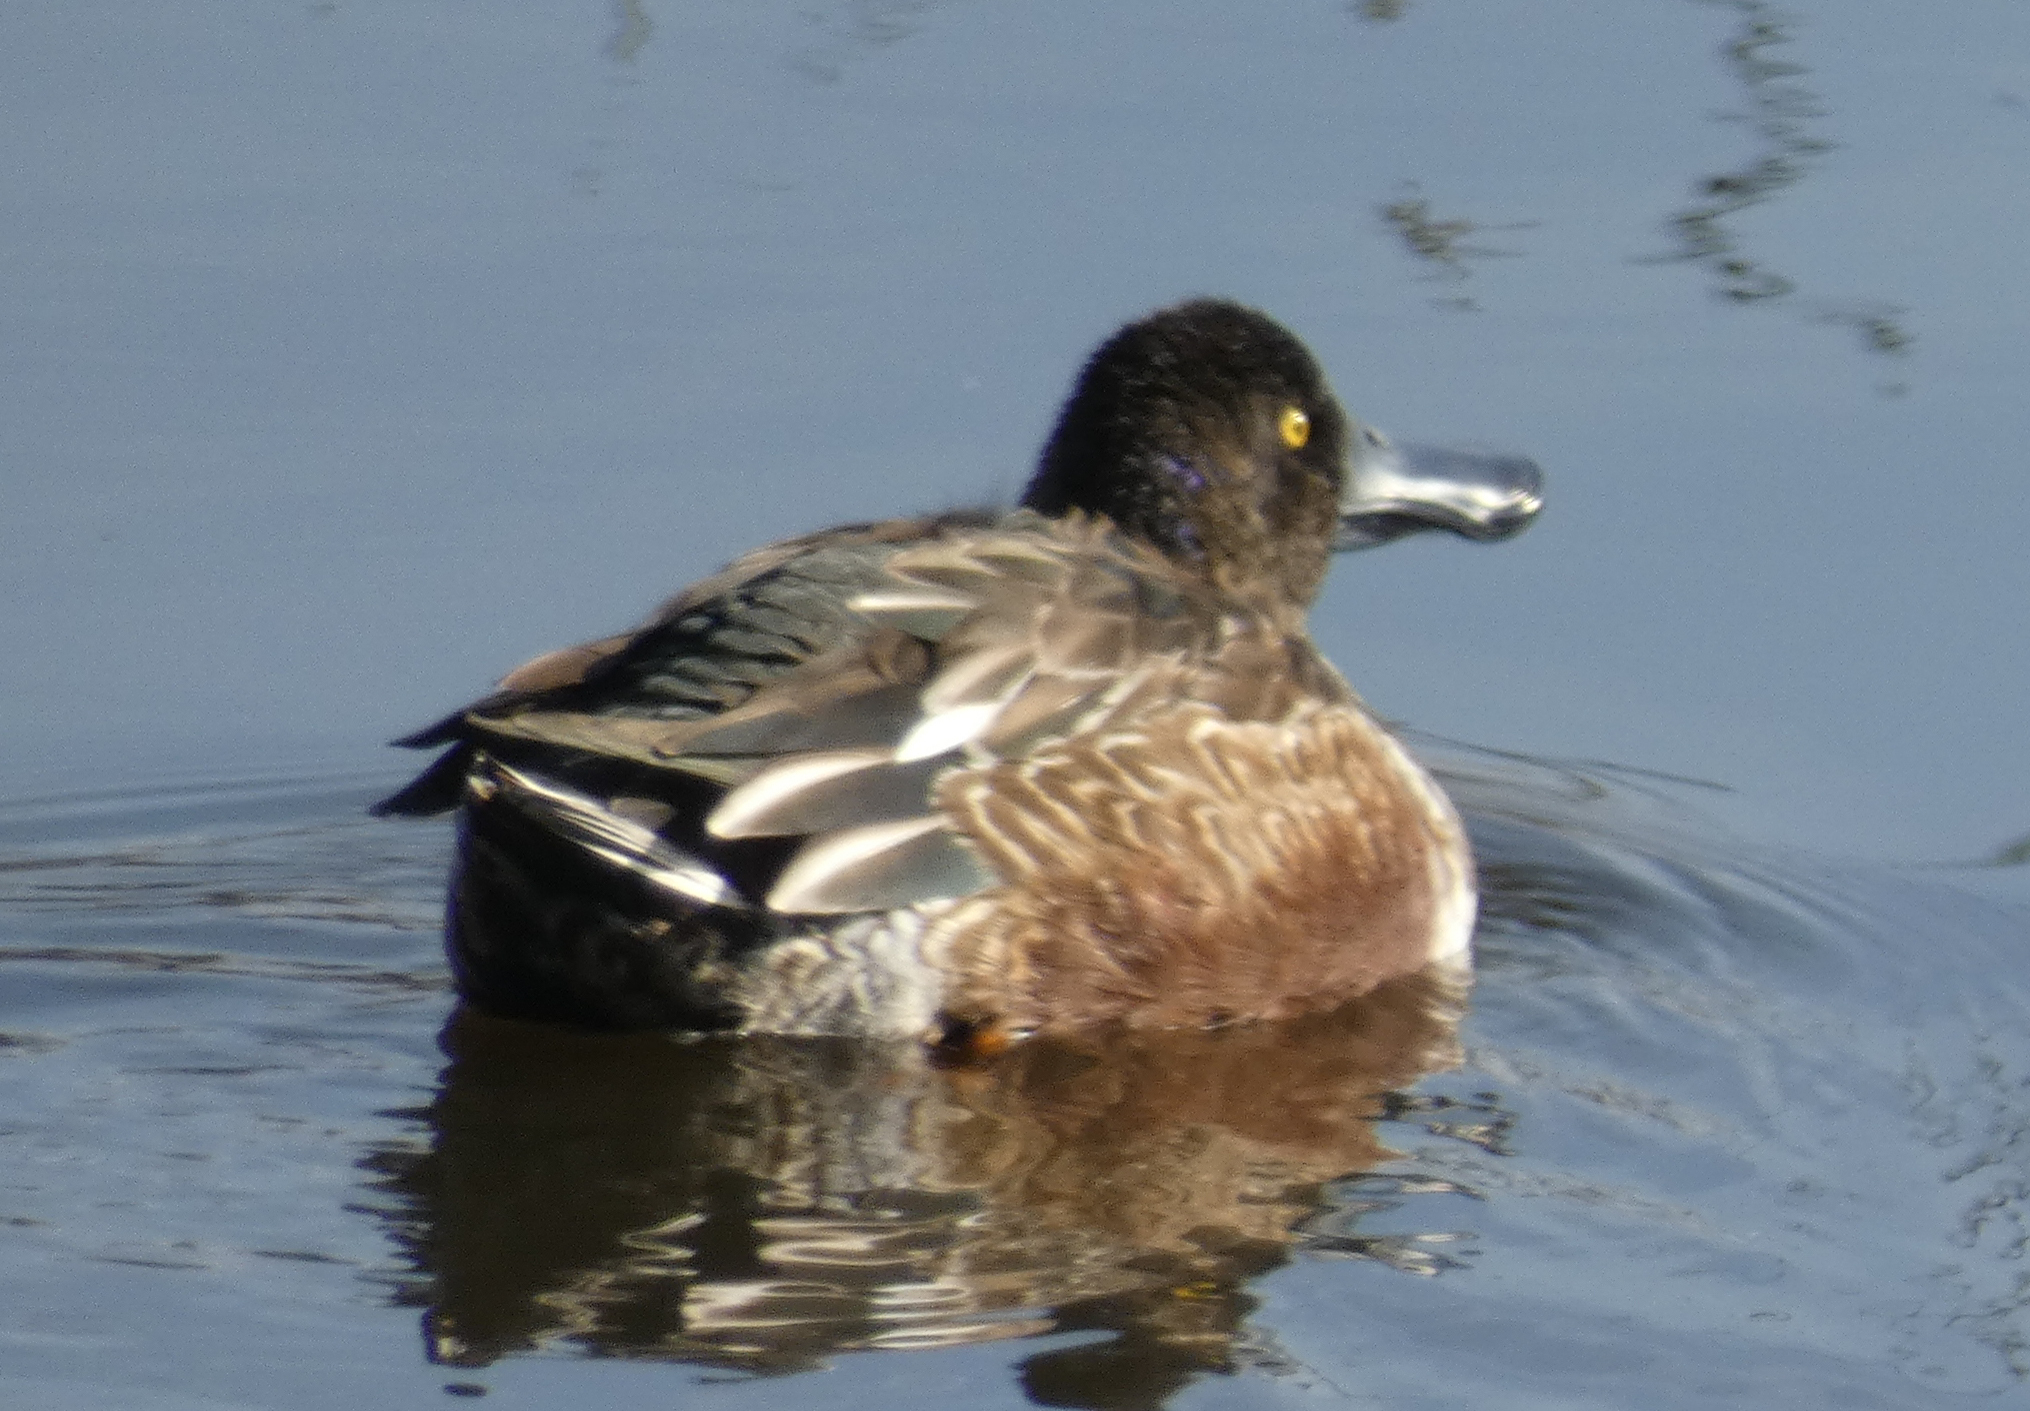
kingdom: Animalia
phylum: Chordata
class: Aves
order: Anseriformes
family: Anatidae
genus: Spatula
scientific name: Spatula clypeata
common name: Northern shoveler
